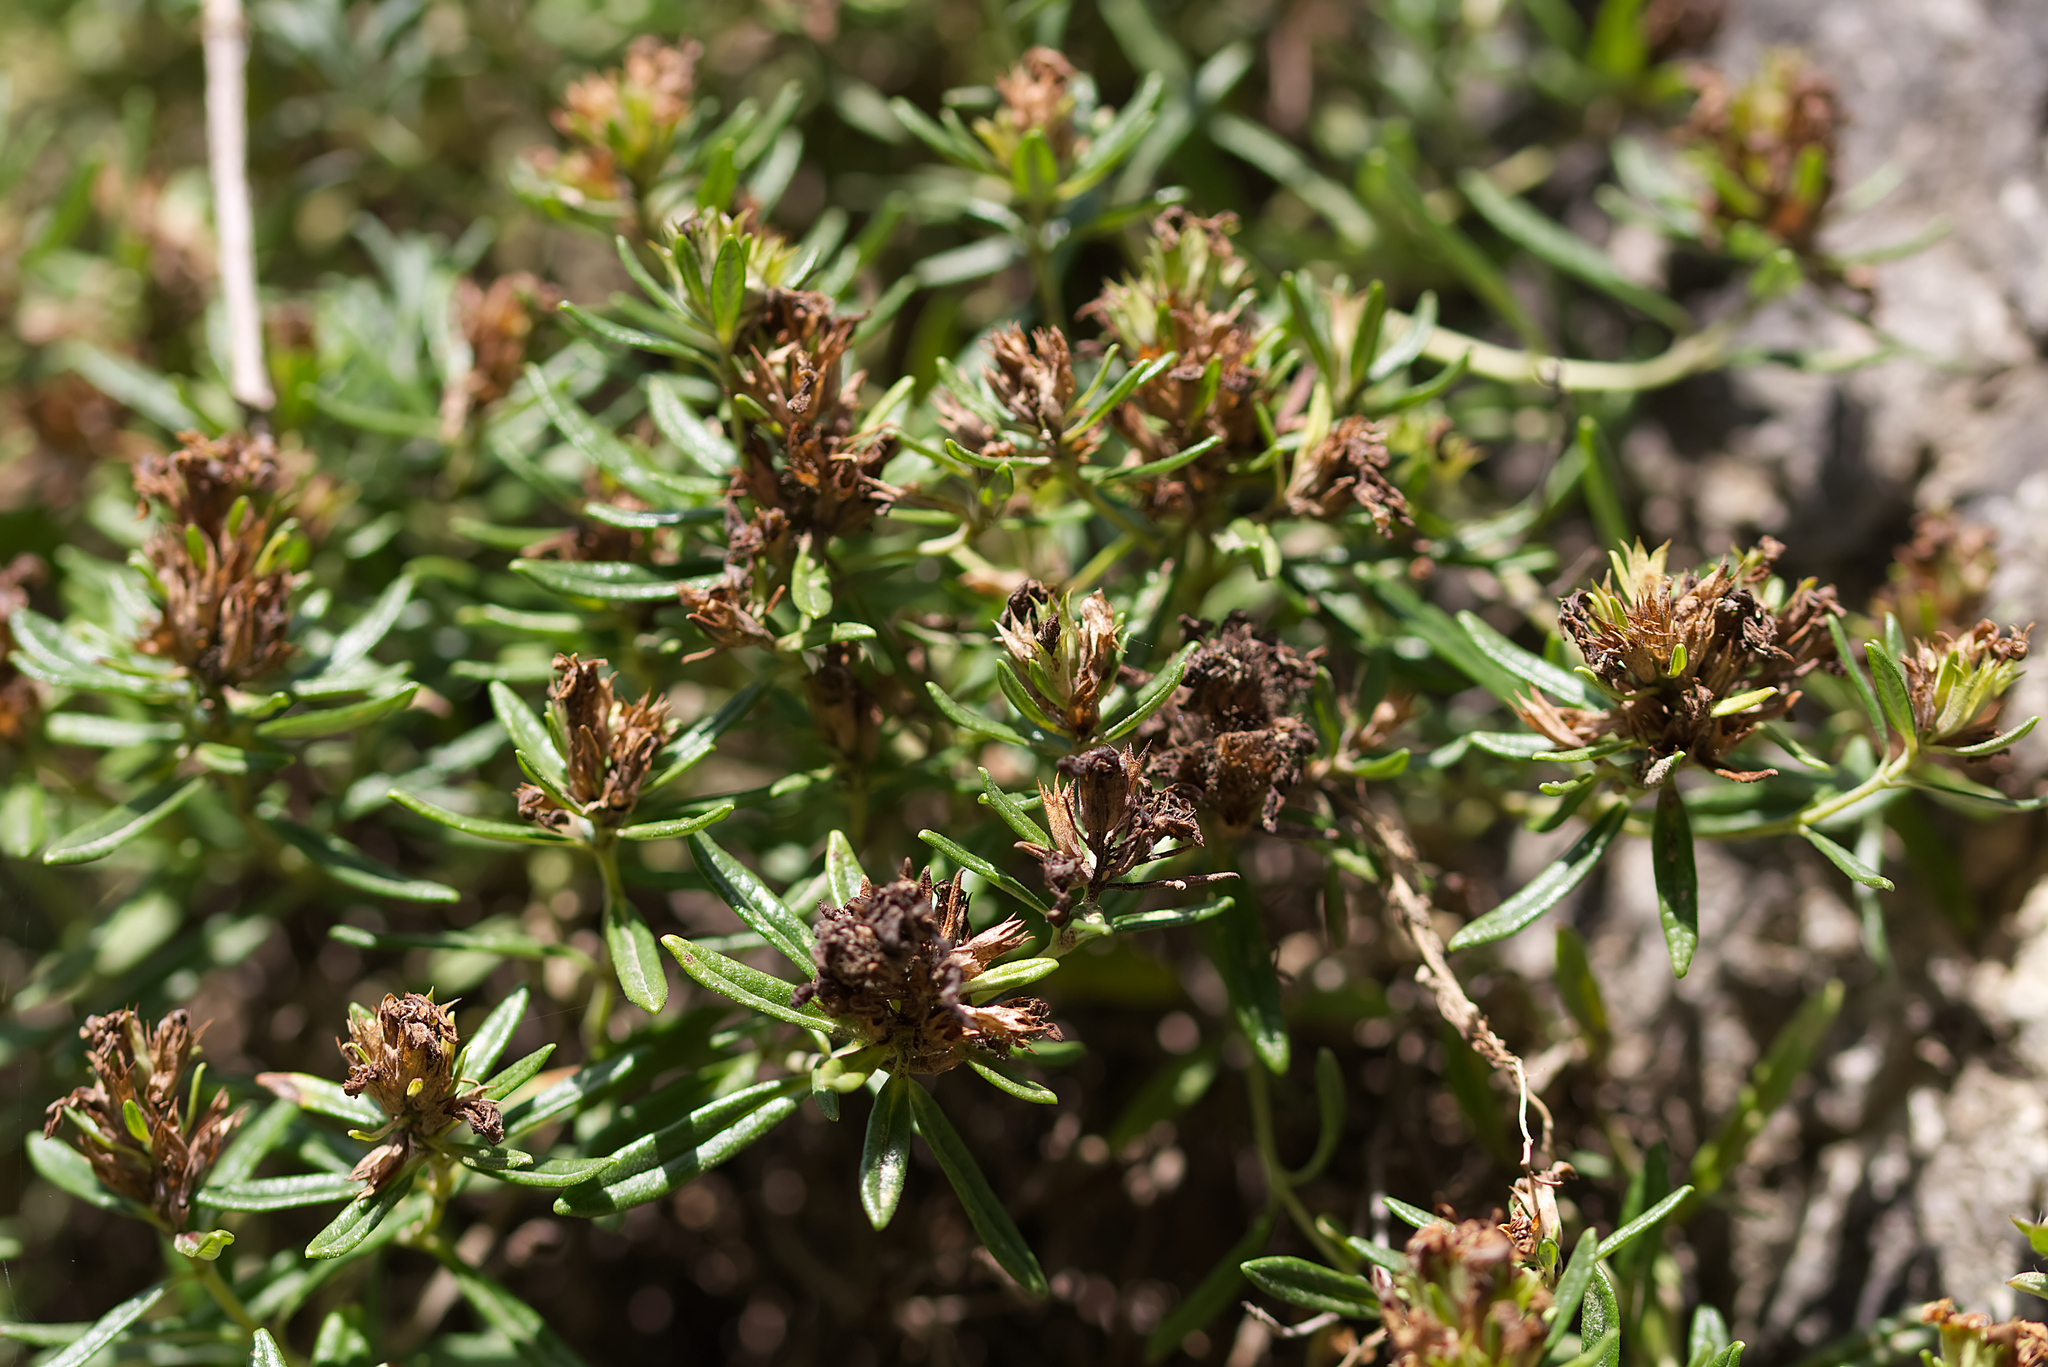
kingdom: Plantae
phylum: Tracheophyta
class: Magnoliopsida
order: Lamiales
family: Lamiaceae
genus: Teucrium
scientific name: Teucrium montanum
